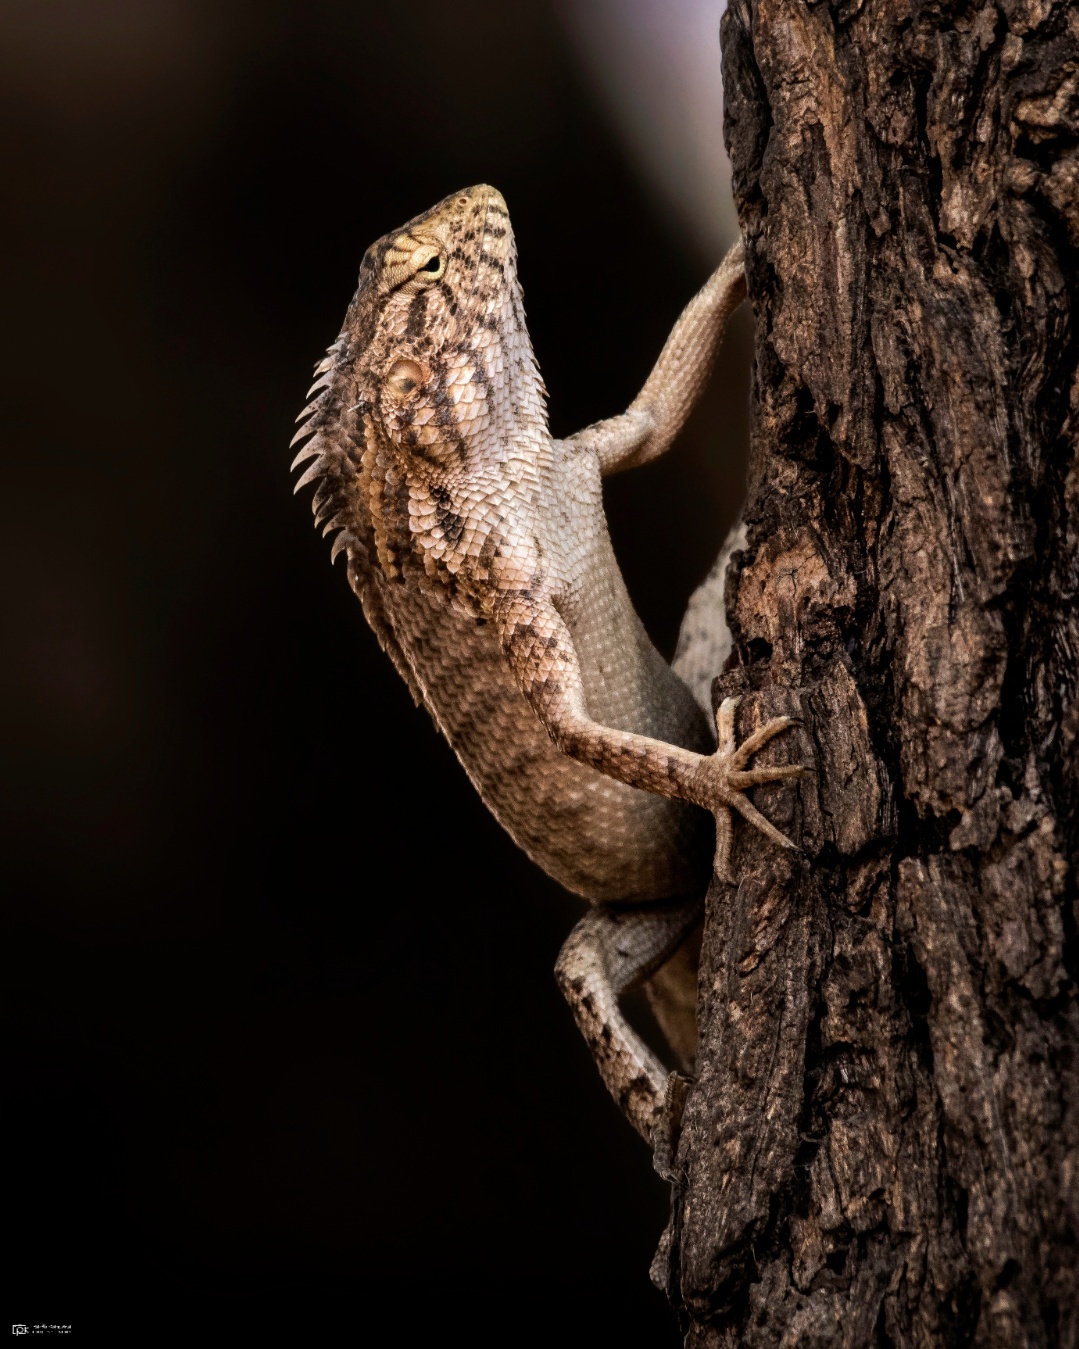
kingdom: Animalia
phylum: Chordata
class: Squamata
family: Agamidae
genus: Calotes
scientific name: Calotes versicolor
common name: Oriental garden lizard
